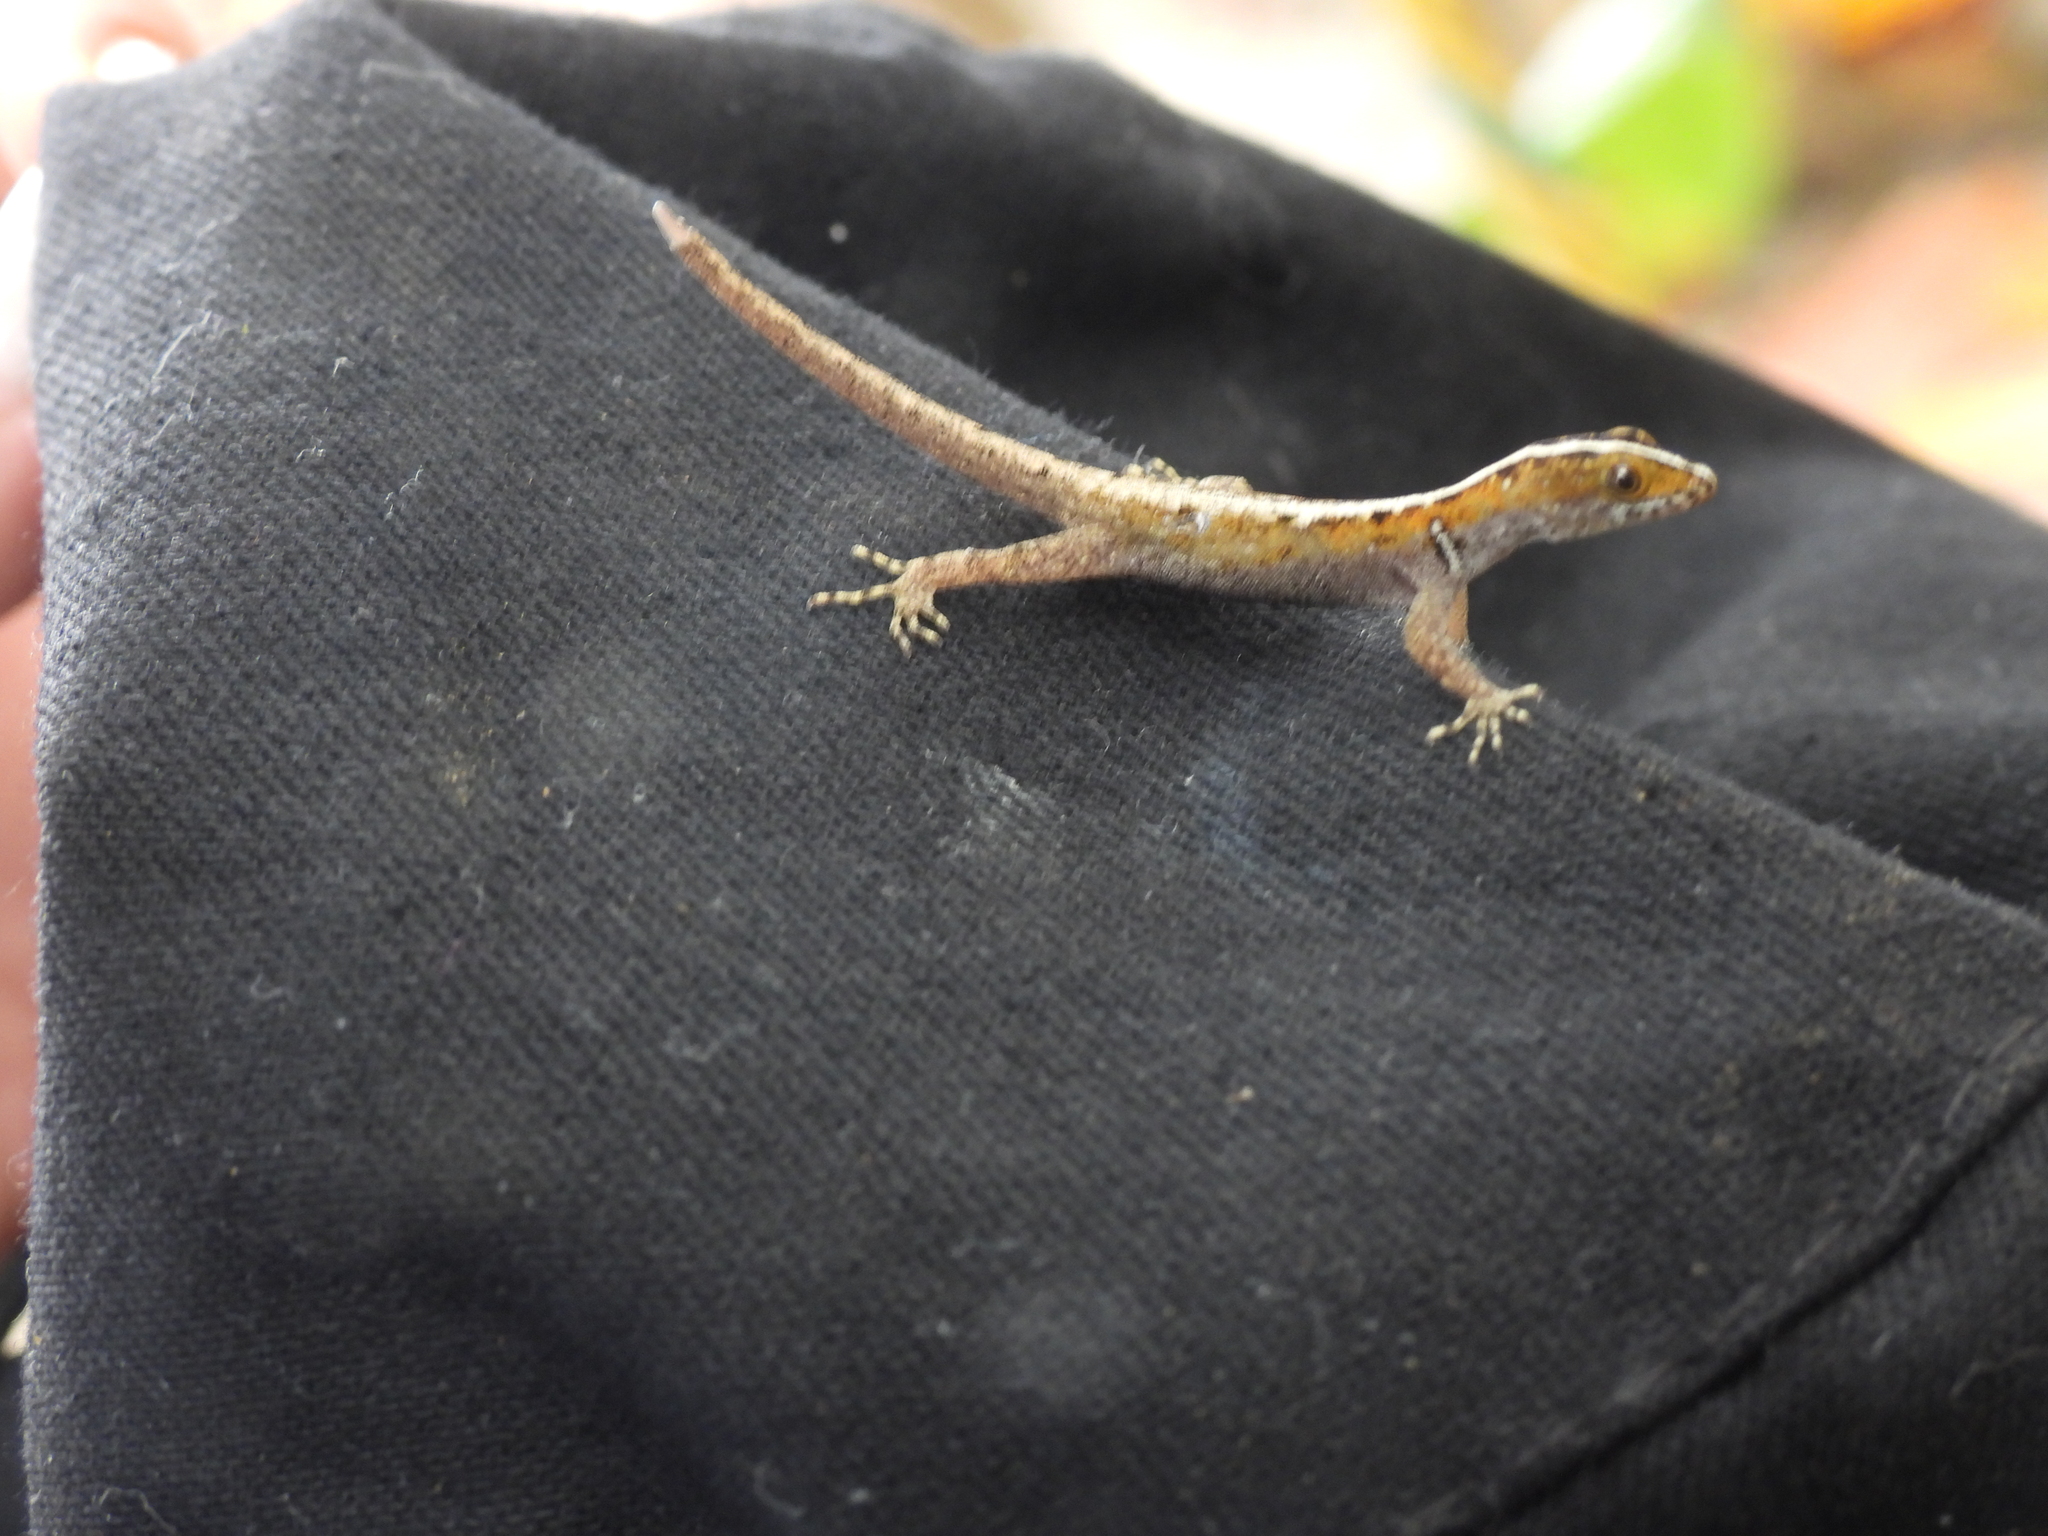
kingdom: Animalia
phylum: Chordata
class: Squamata
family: Sphaerodactylidae
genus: Gonatodes
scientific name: Gonatodes vittatus
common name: Wiegmann's striped gecko
